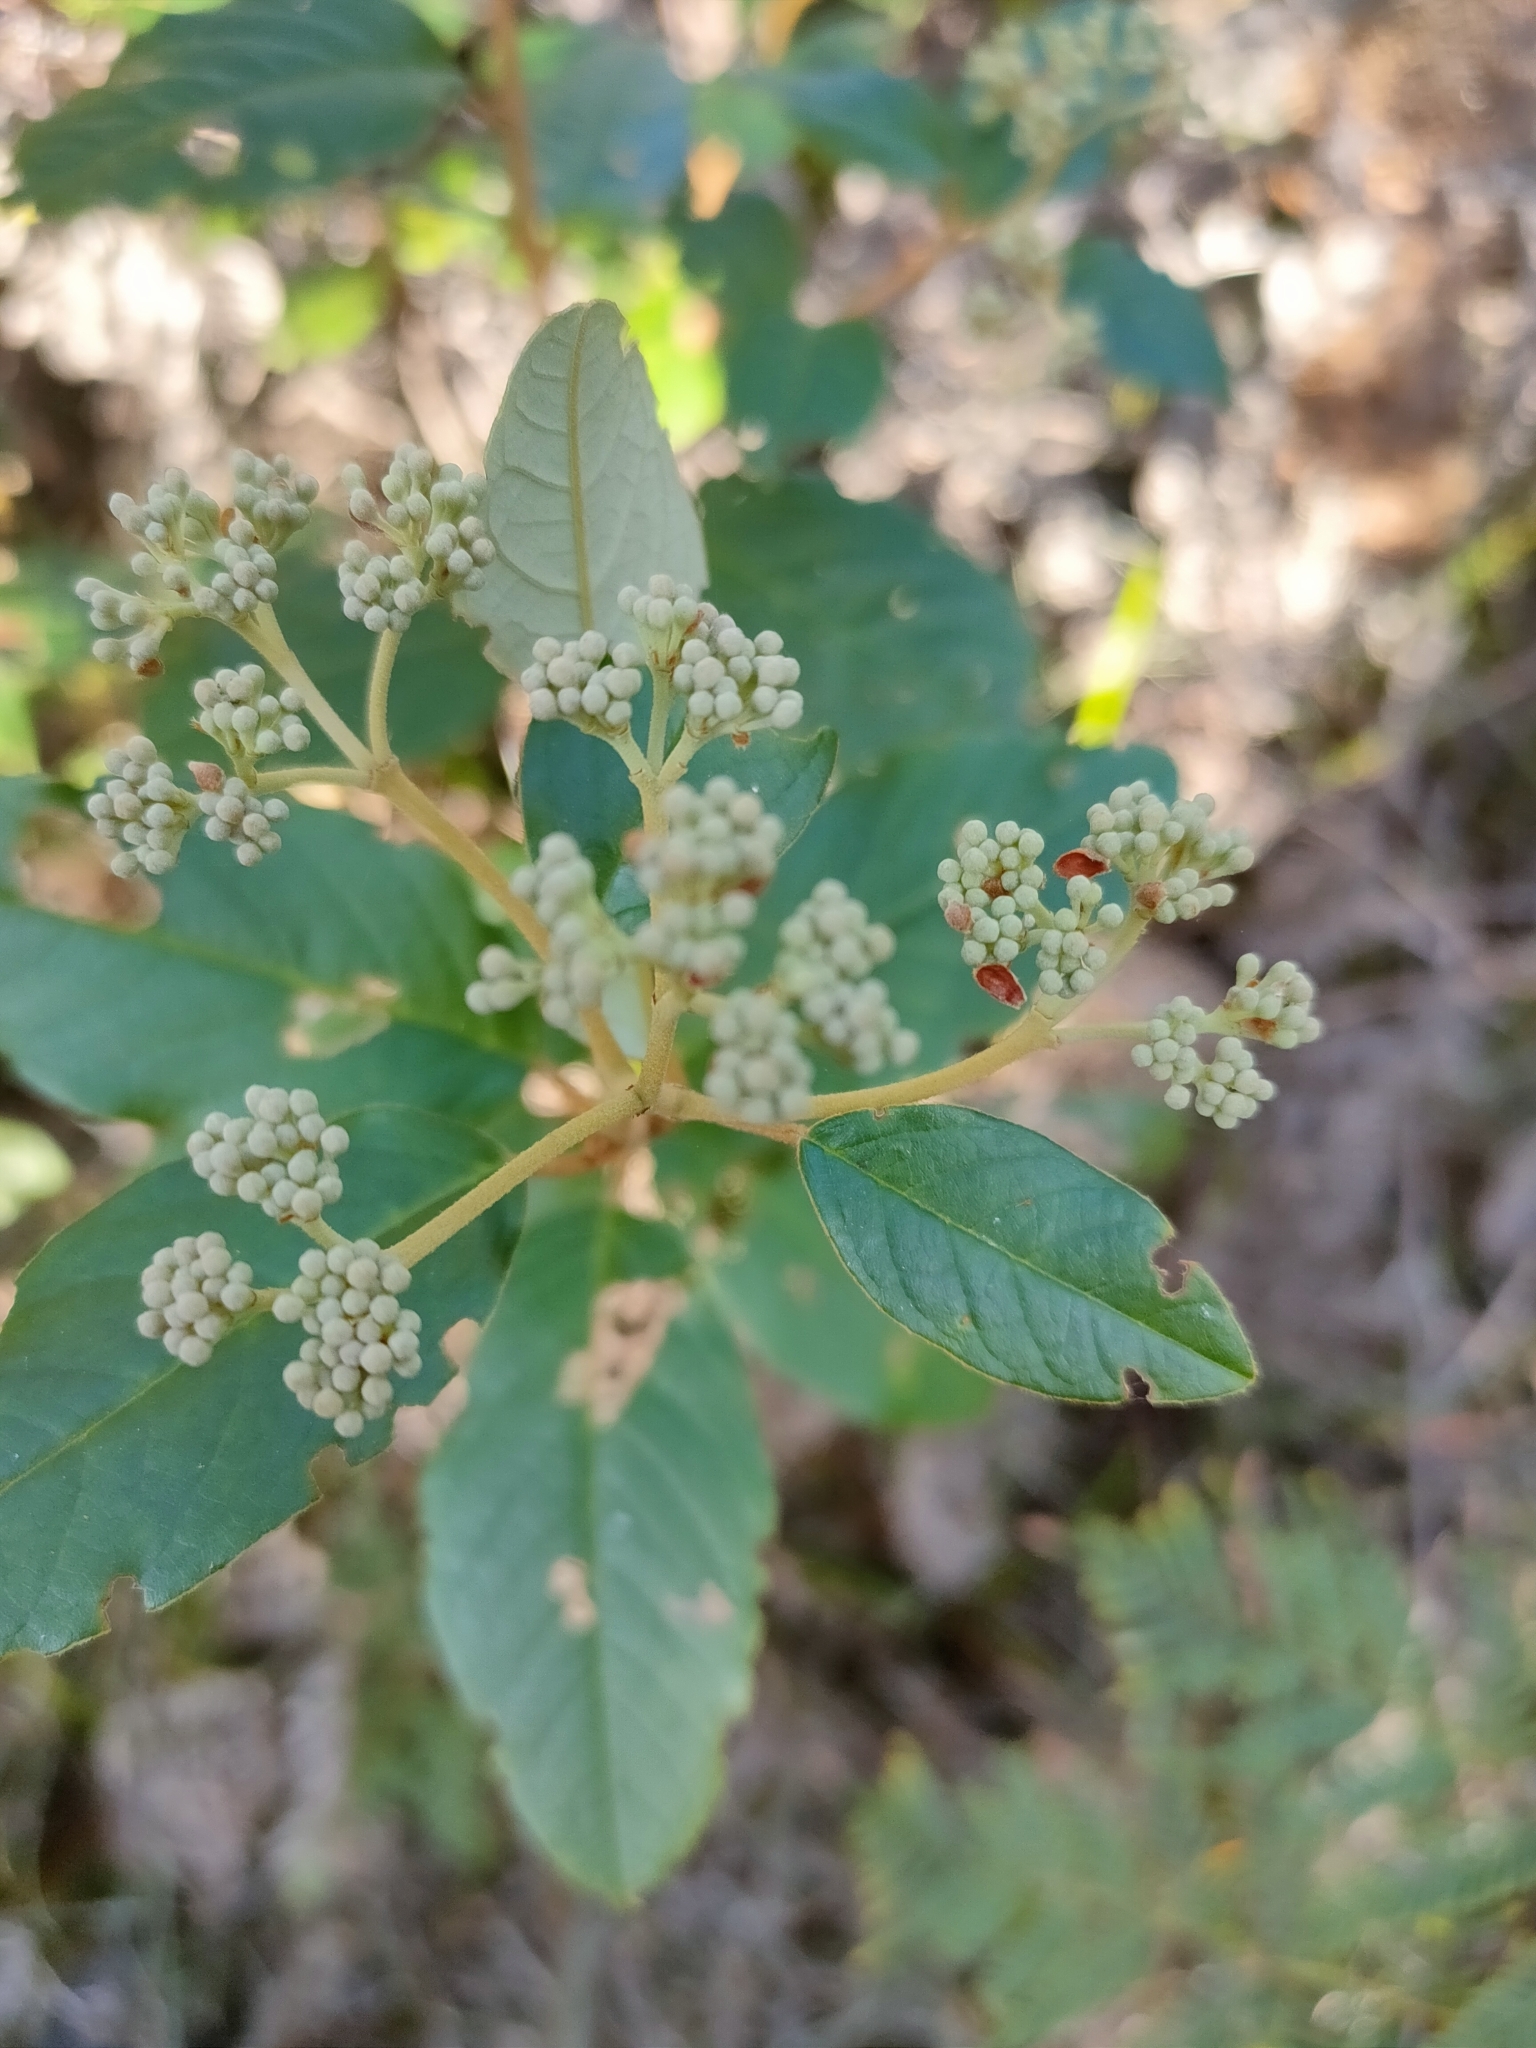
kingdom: Plantae
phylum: Tracheophyta
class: Magnoliopsida
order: Rosales
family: Rhamnaceae
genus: Pomaderris
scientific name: Pomaderris elliptica
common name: Yellow-dogwood
